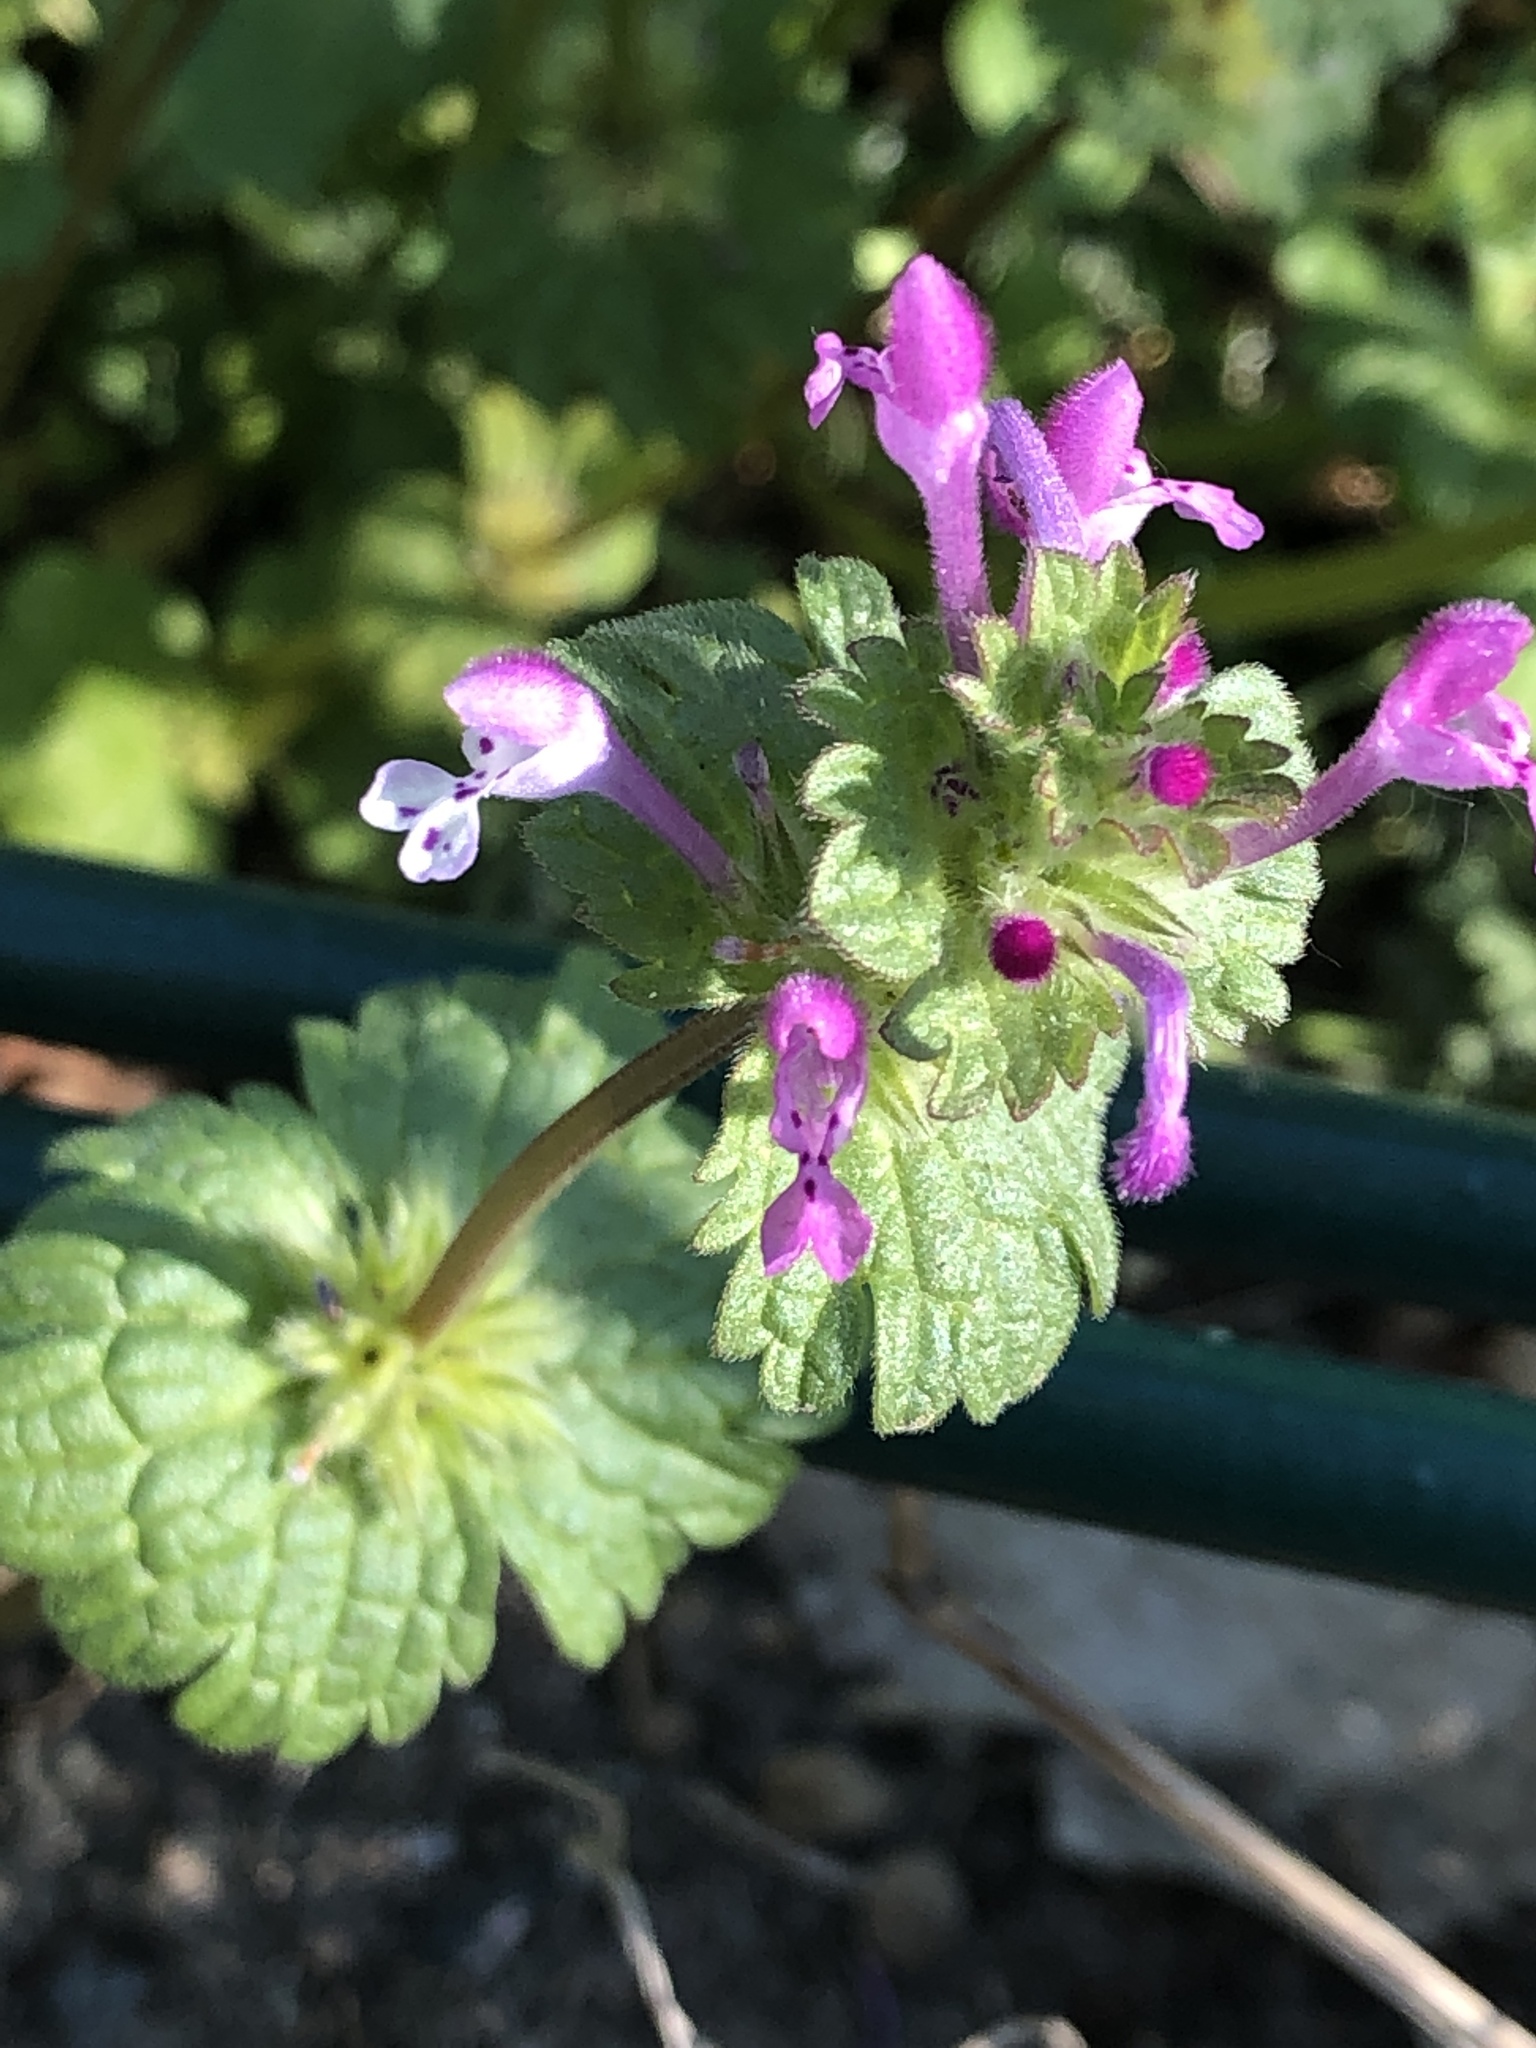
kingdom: Plantae
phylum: Tracheophyta
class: Magnoliopsida
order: Lamiales
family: Lamiaceae
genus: Lamium
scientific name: Lamium amplexicaule
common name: Henbit dead-nettle
